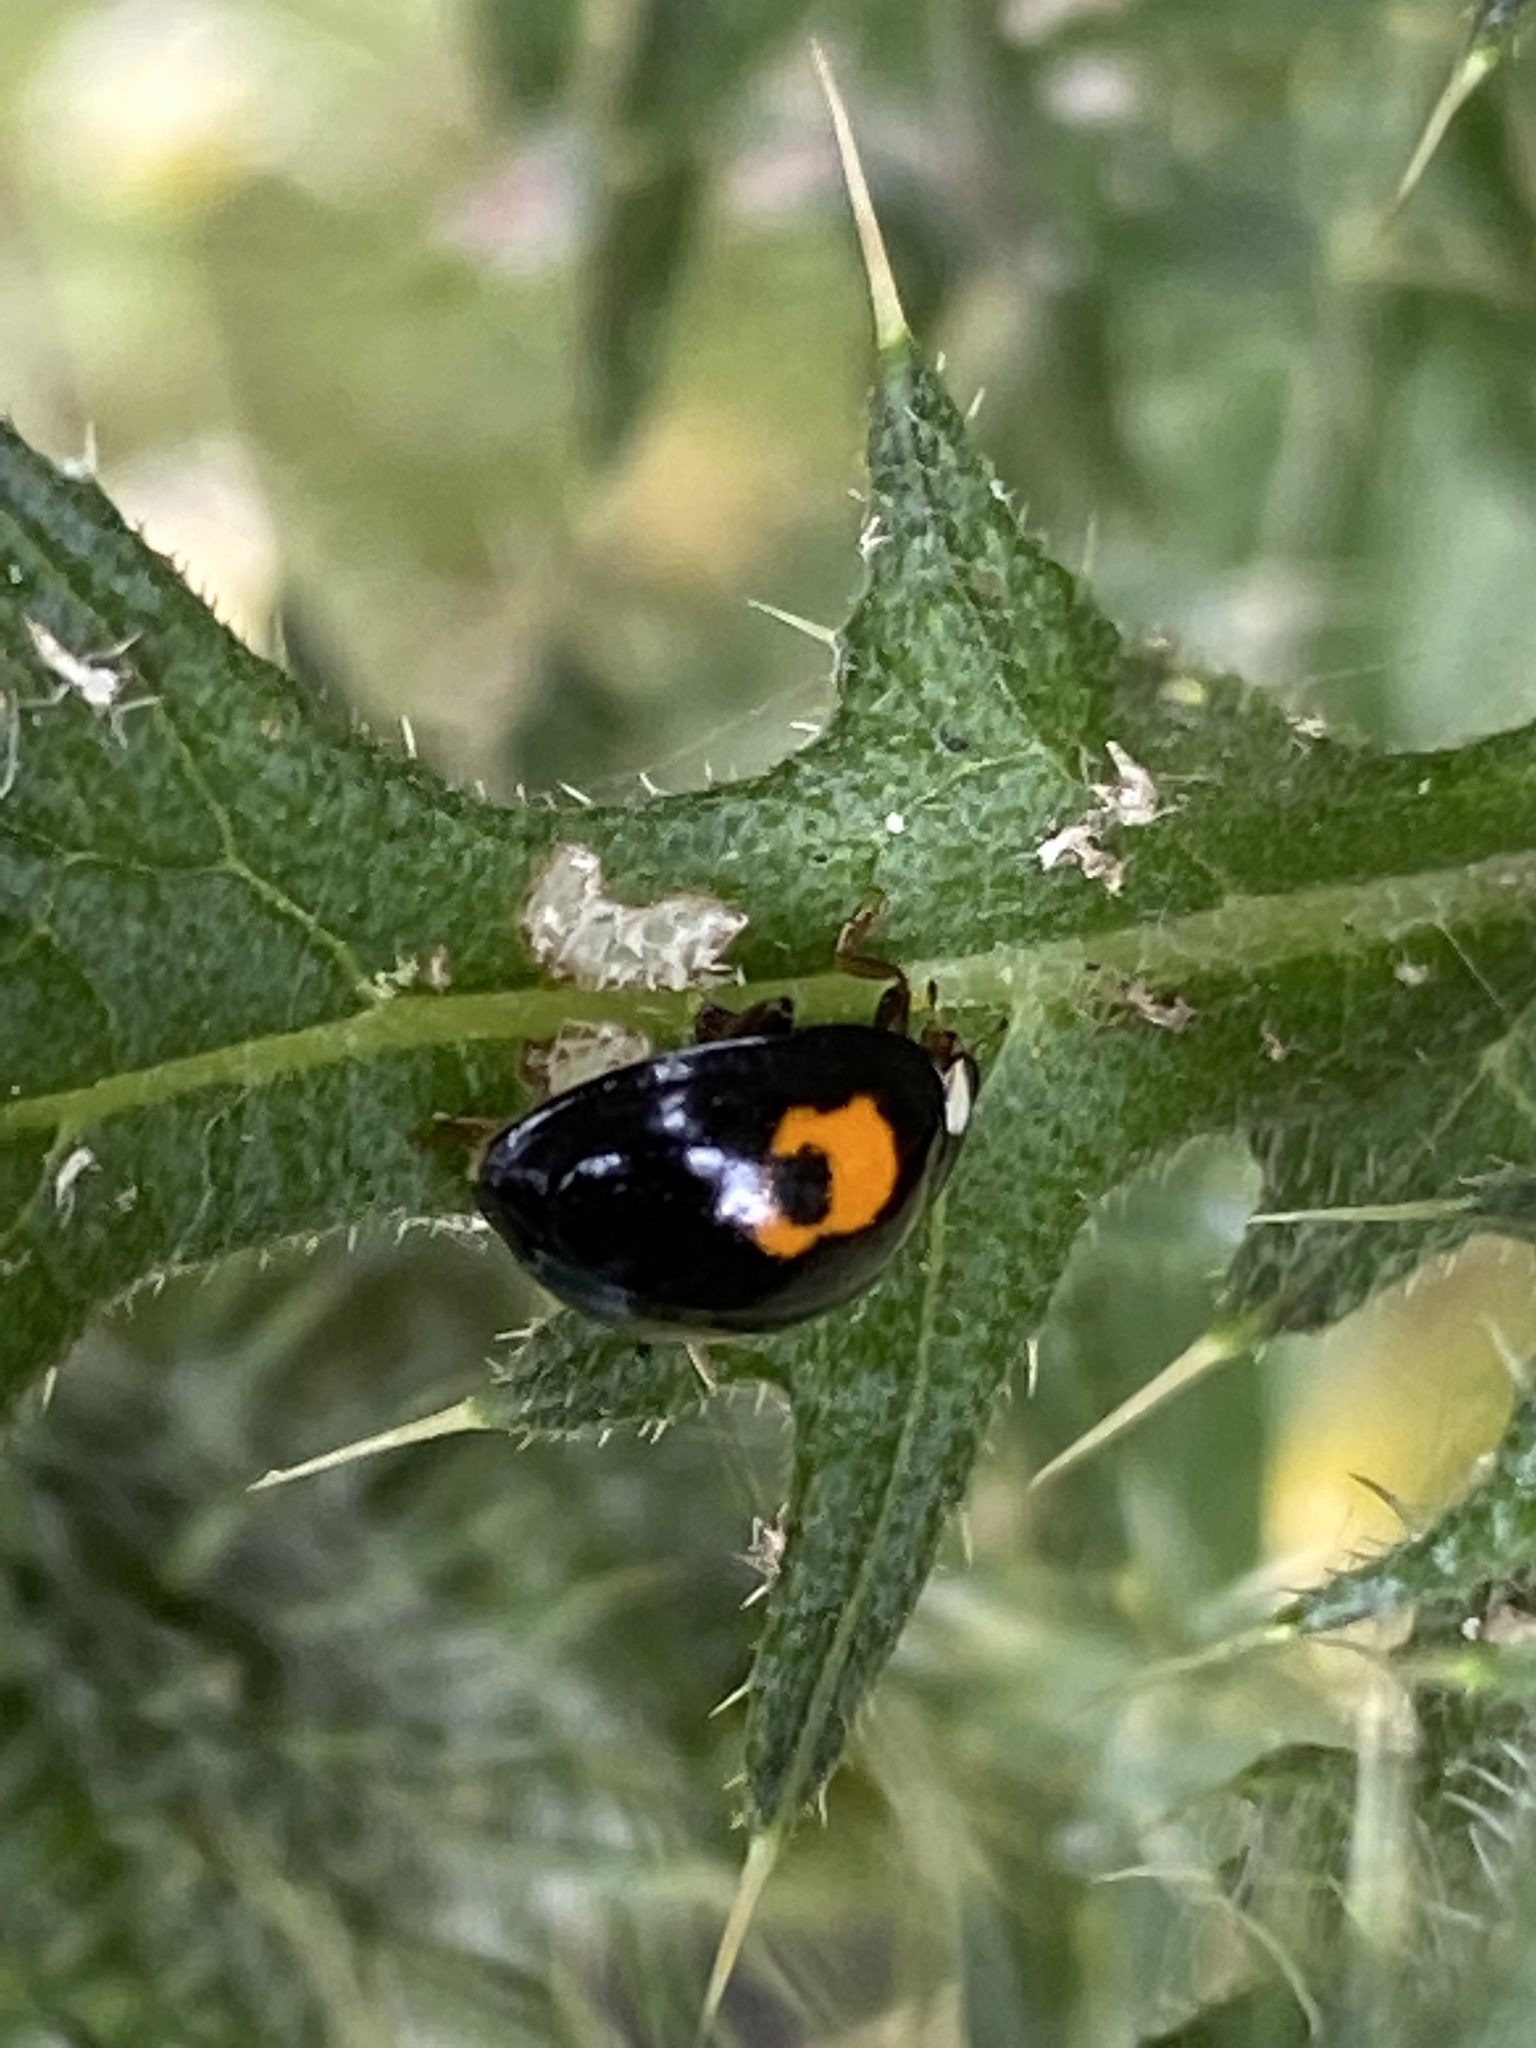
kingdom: Animalia
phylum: Arthropoda
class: Insecta
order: Coleoptera
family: Coccinellidae
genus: Harmonia
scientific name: Harmonia axyridis
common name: Harlequin ladybird
